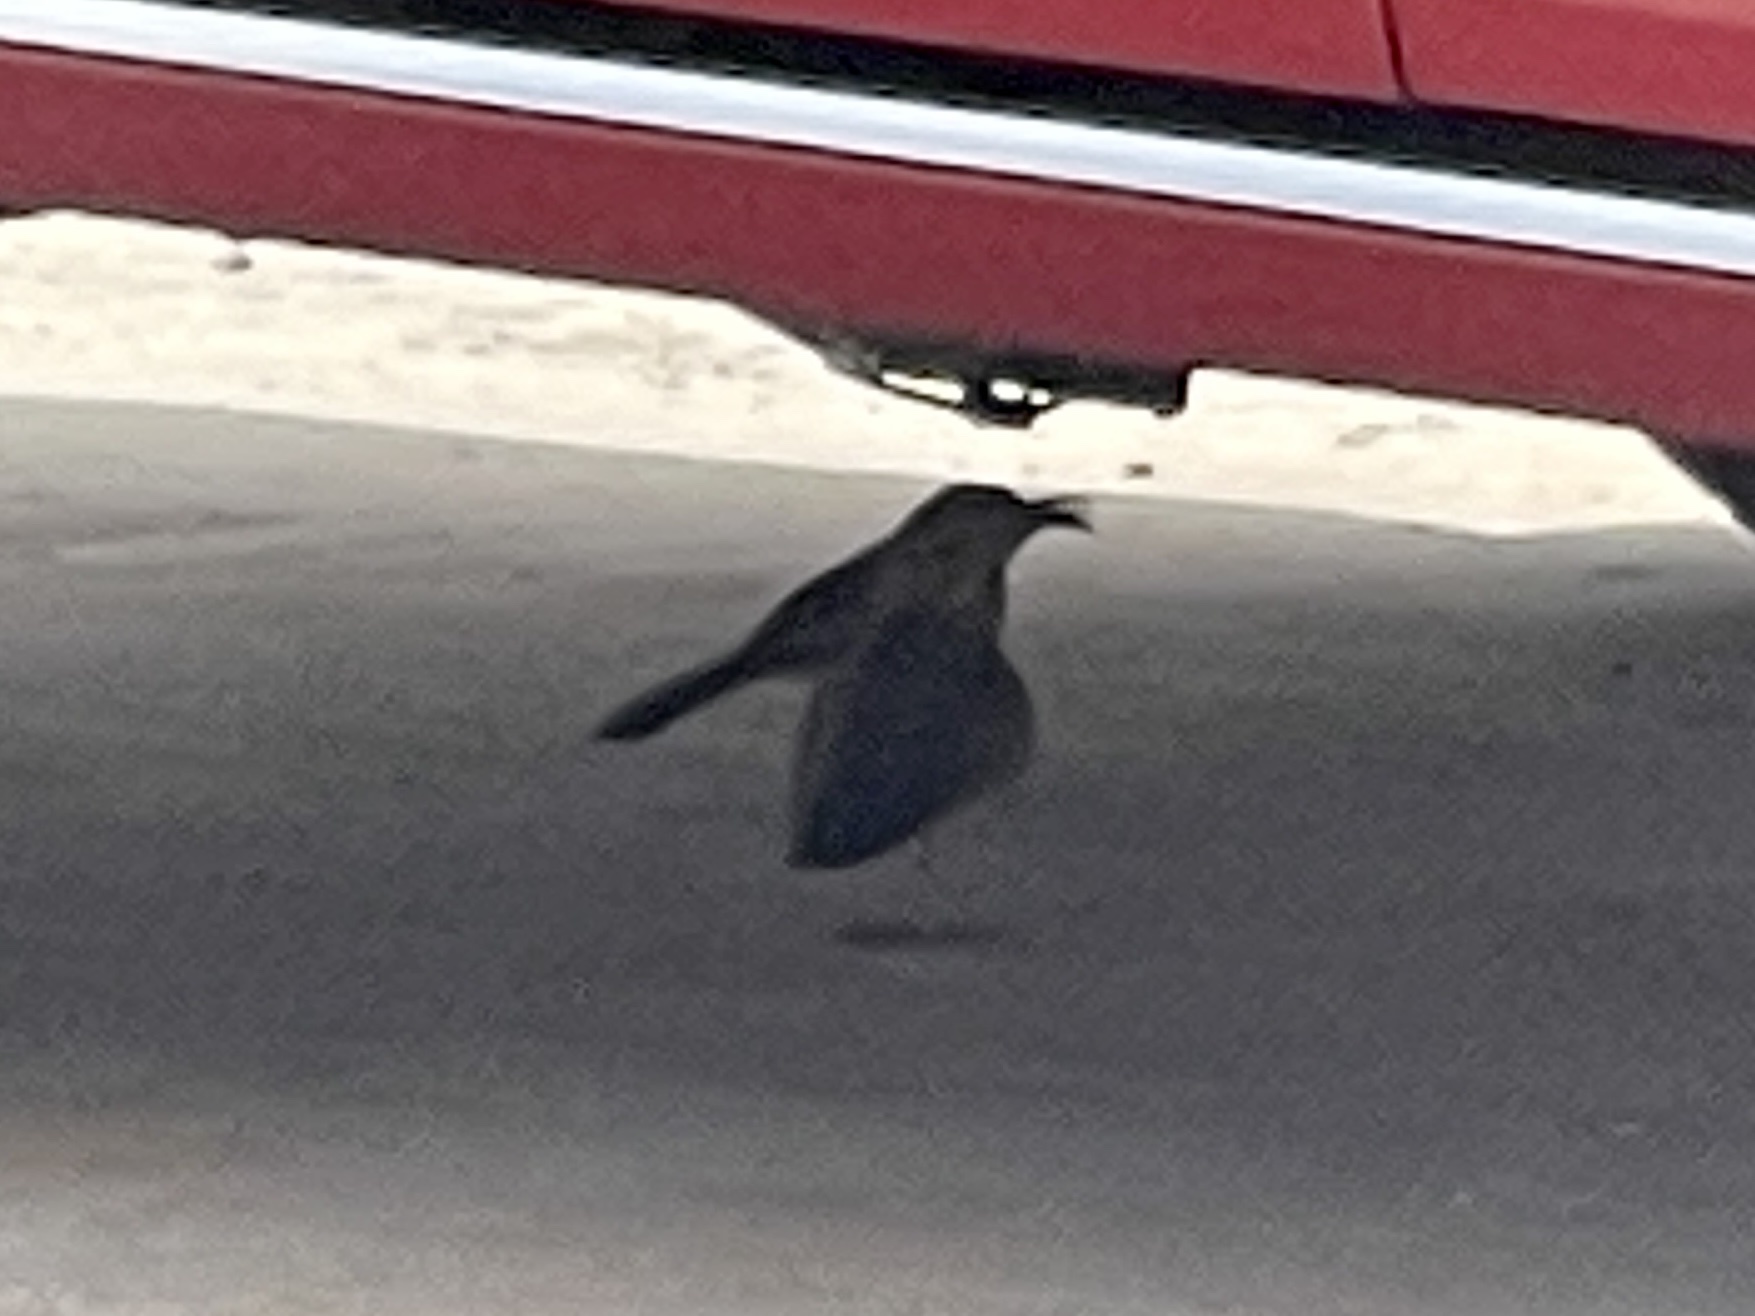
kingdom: Animalia
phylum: Chordata
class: Aves
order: Passeriformes
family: Mimidae
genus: Toxostoma
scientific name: Toxostoma curvirostre
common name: Curve-billed thrasher
